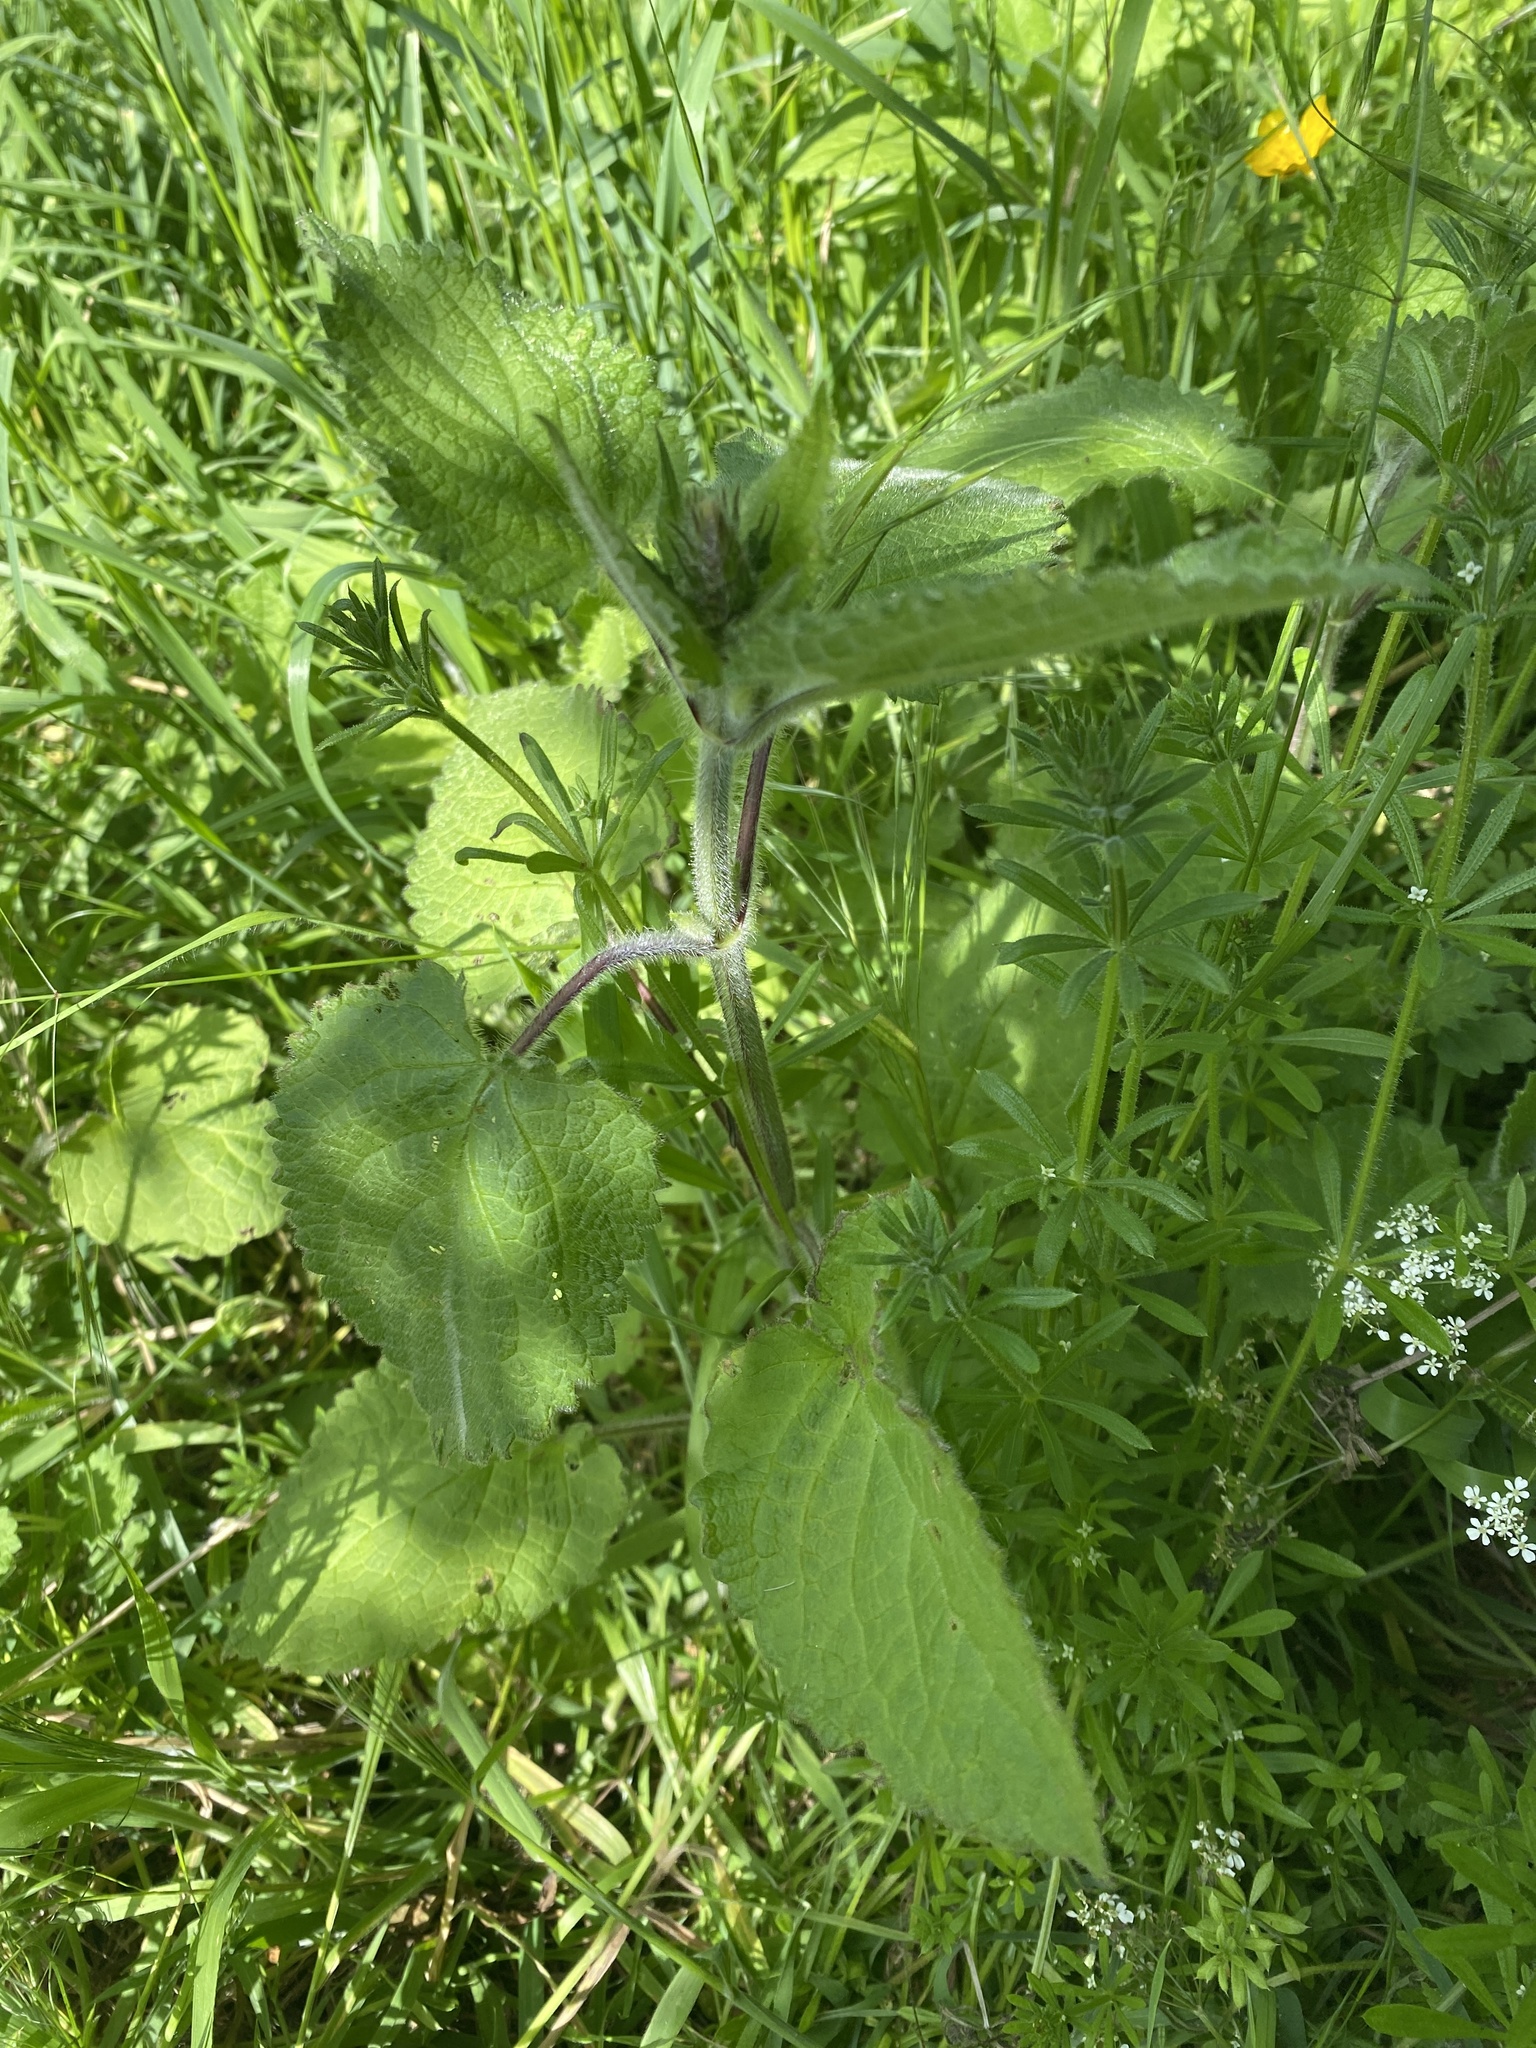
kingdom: Plantae
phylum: Tracheophyta
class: Magnoliopsida
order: Lamiales
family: Lamiaceae
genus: Stachys
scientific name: Stachys sylvatica
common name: Hedge woundwort
